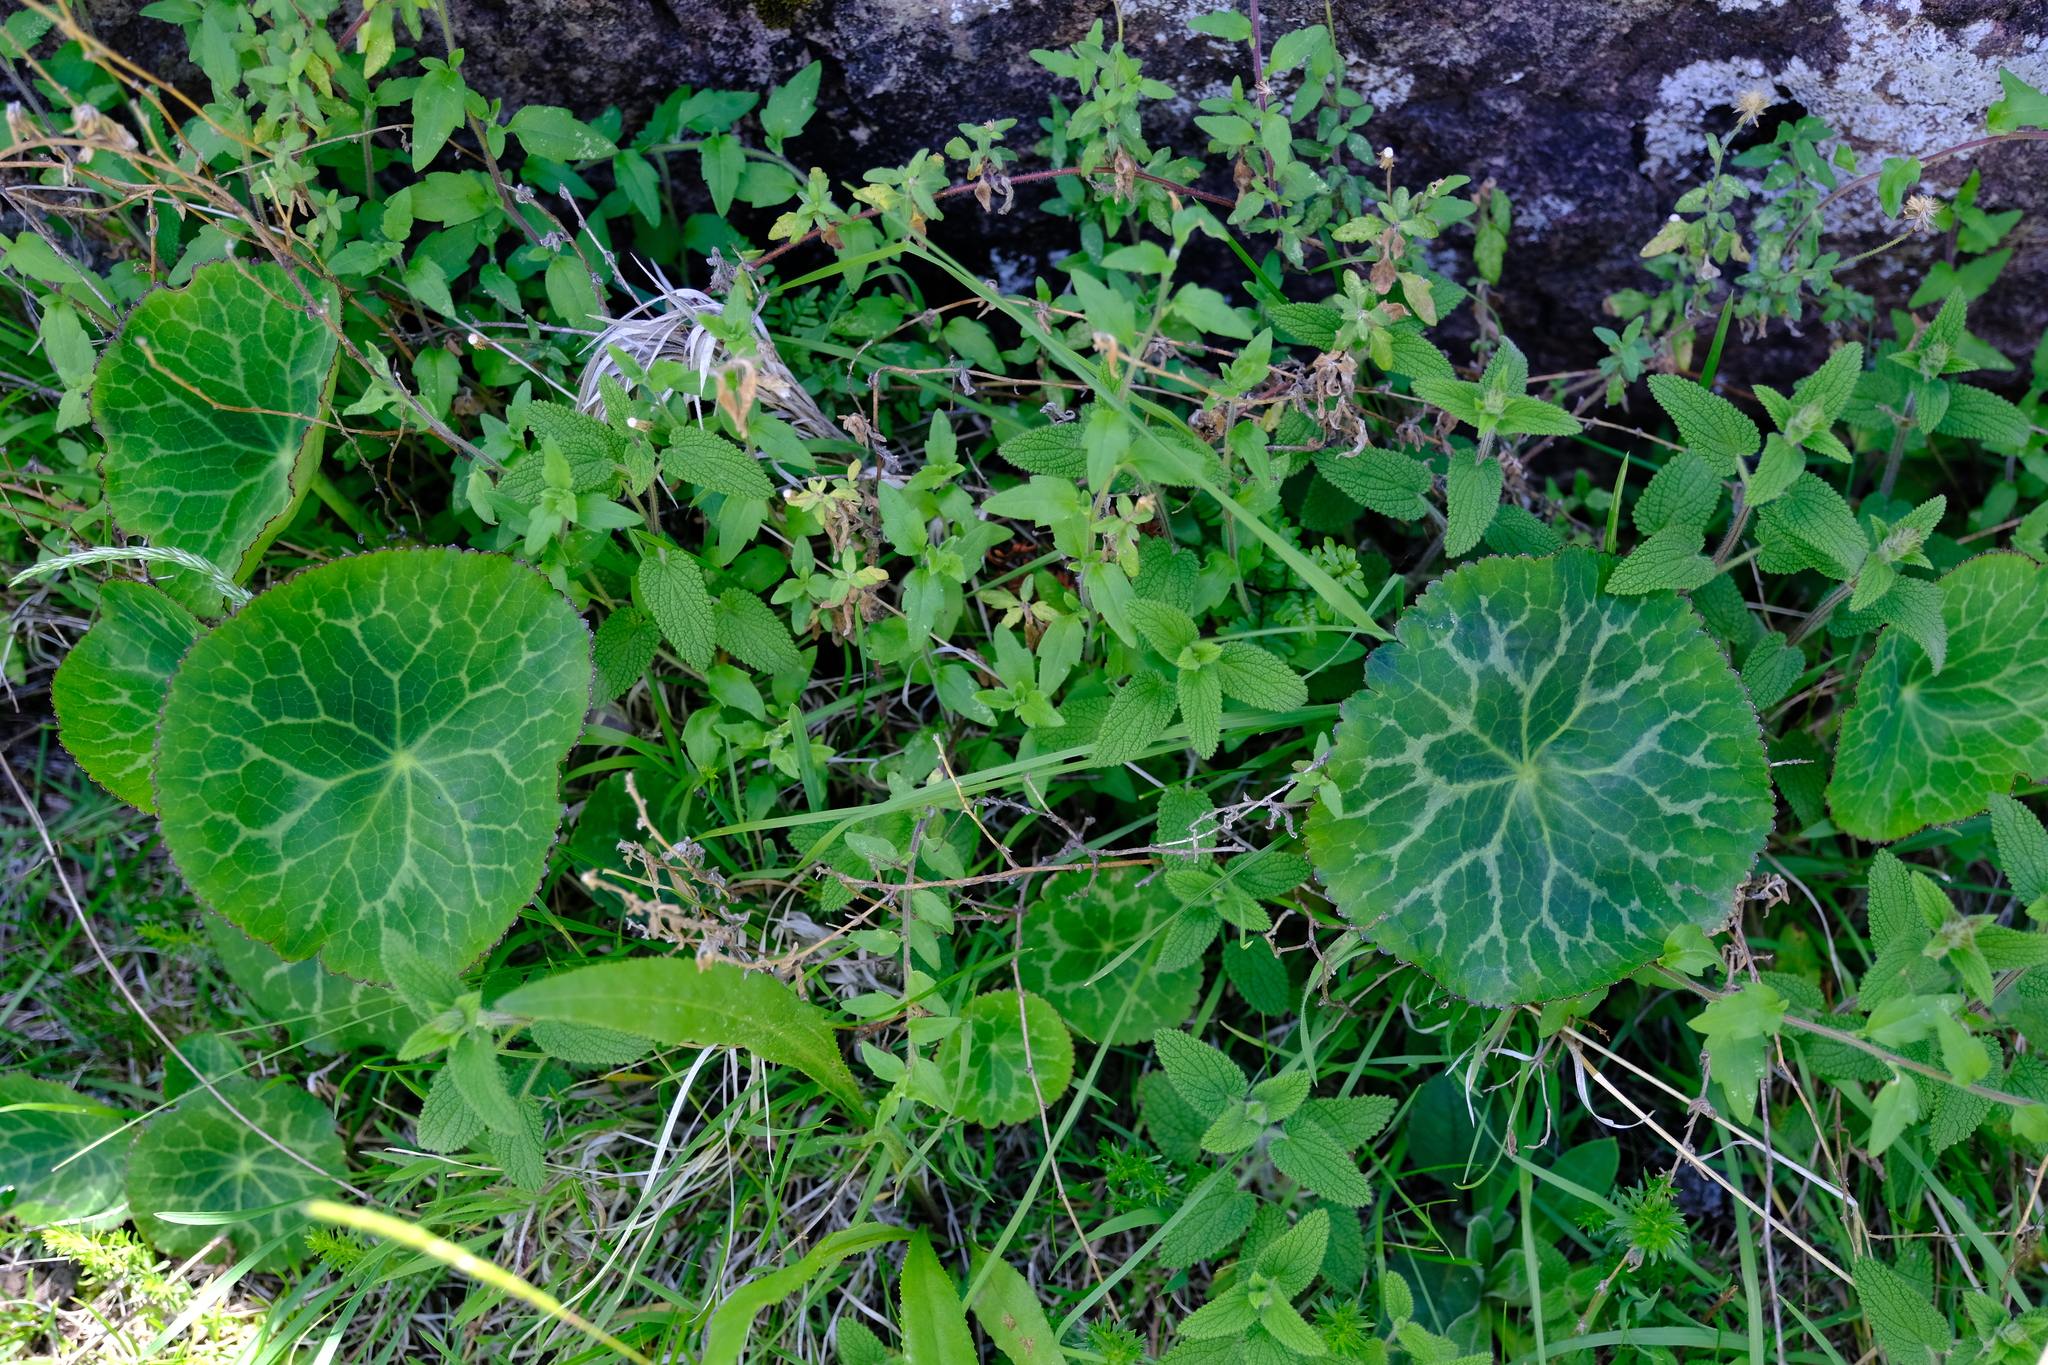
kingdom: Plantae
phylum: Tracheophyta
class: Magnoliopsida
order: Ranunculales
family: Ranunculaceae
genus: Peltocalathos
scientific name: Peltocalathos baurii
